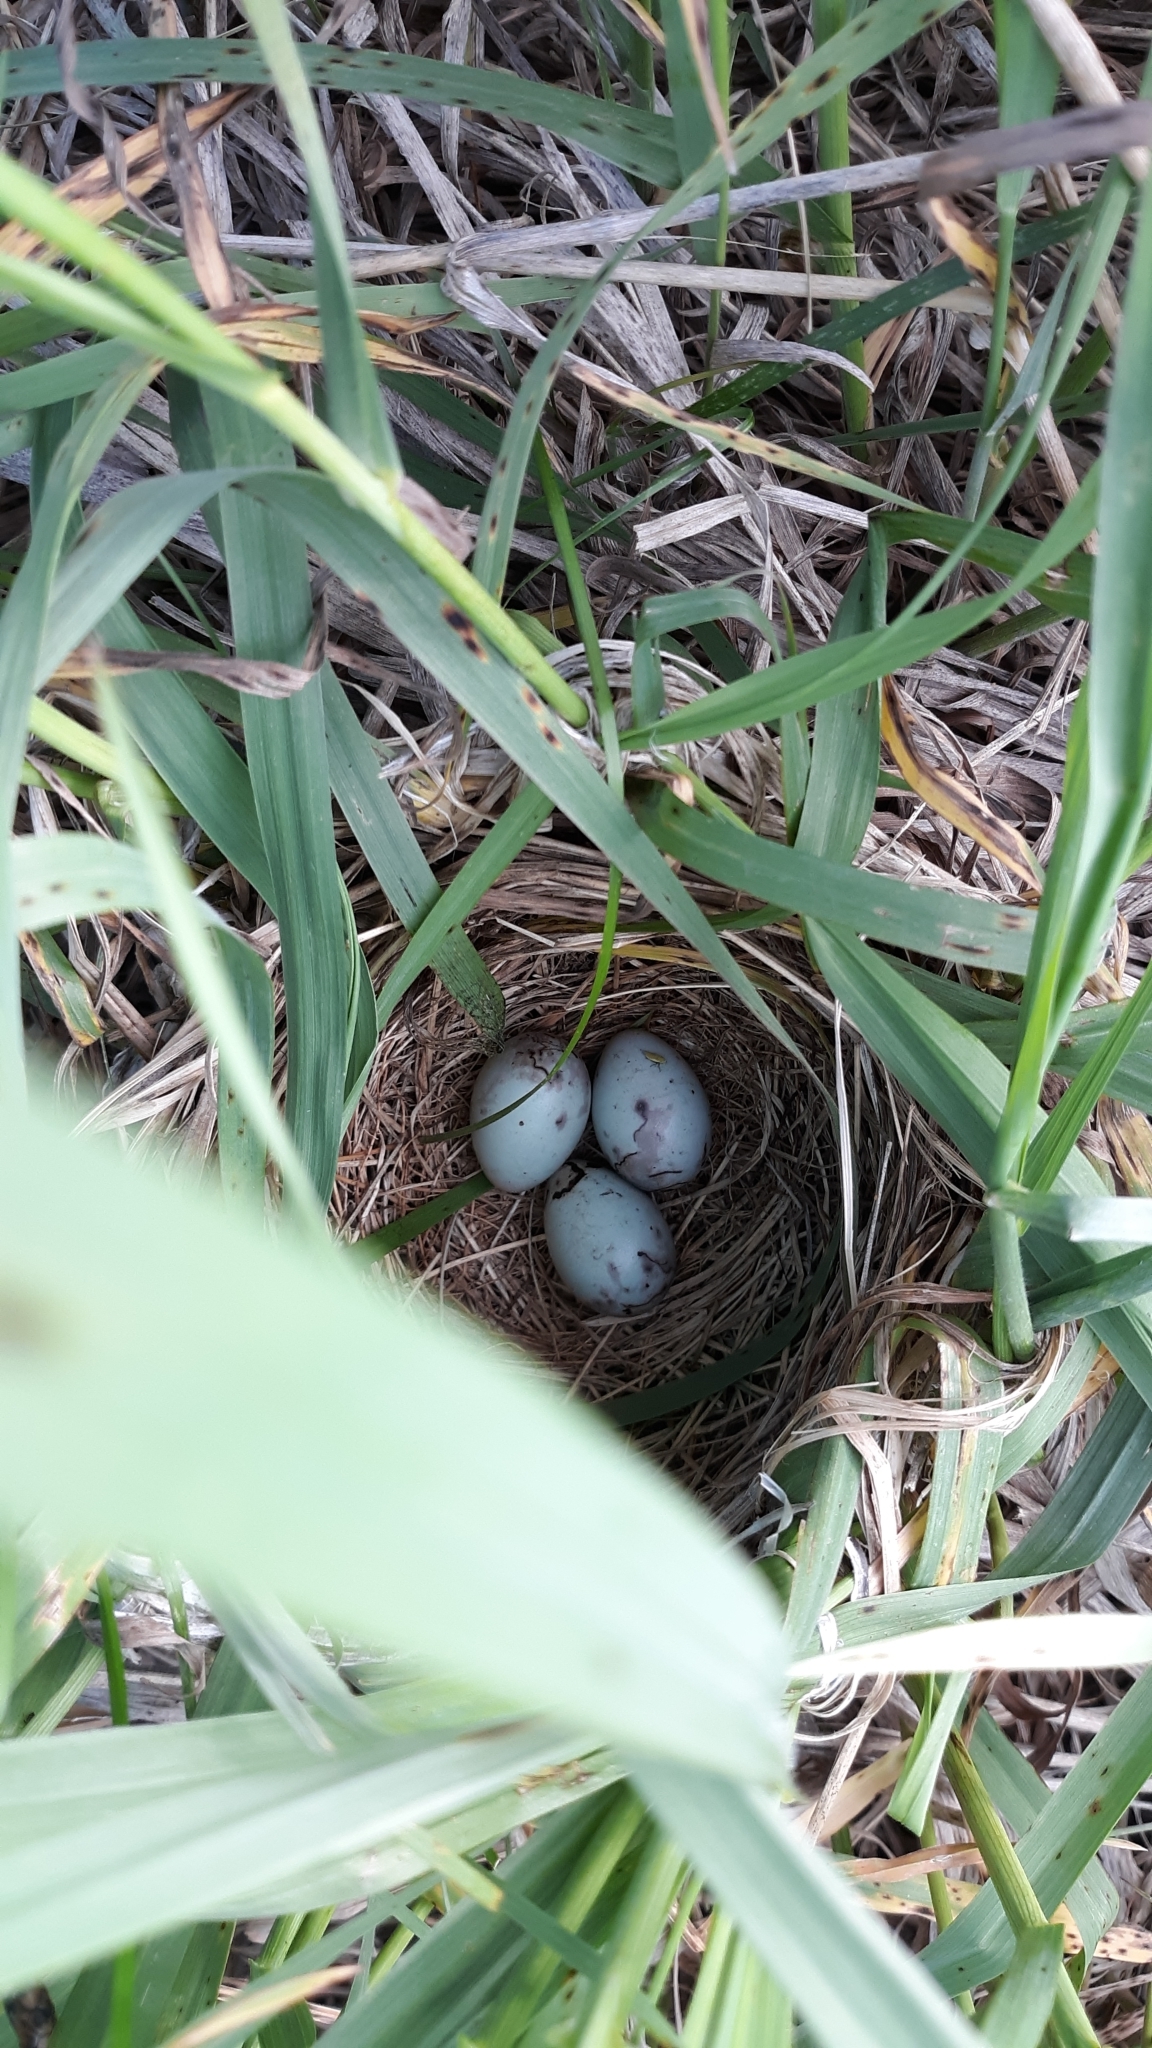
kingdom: Animalia
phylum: Chordata
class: Aves
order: Passeriformes
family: Icteridae
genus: Agelaius
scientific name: Agelaius phoeniceus
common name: Red-winged blackbird
